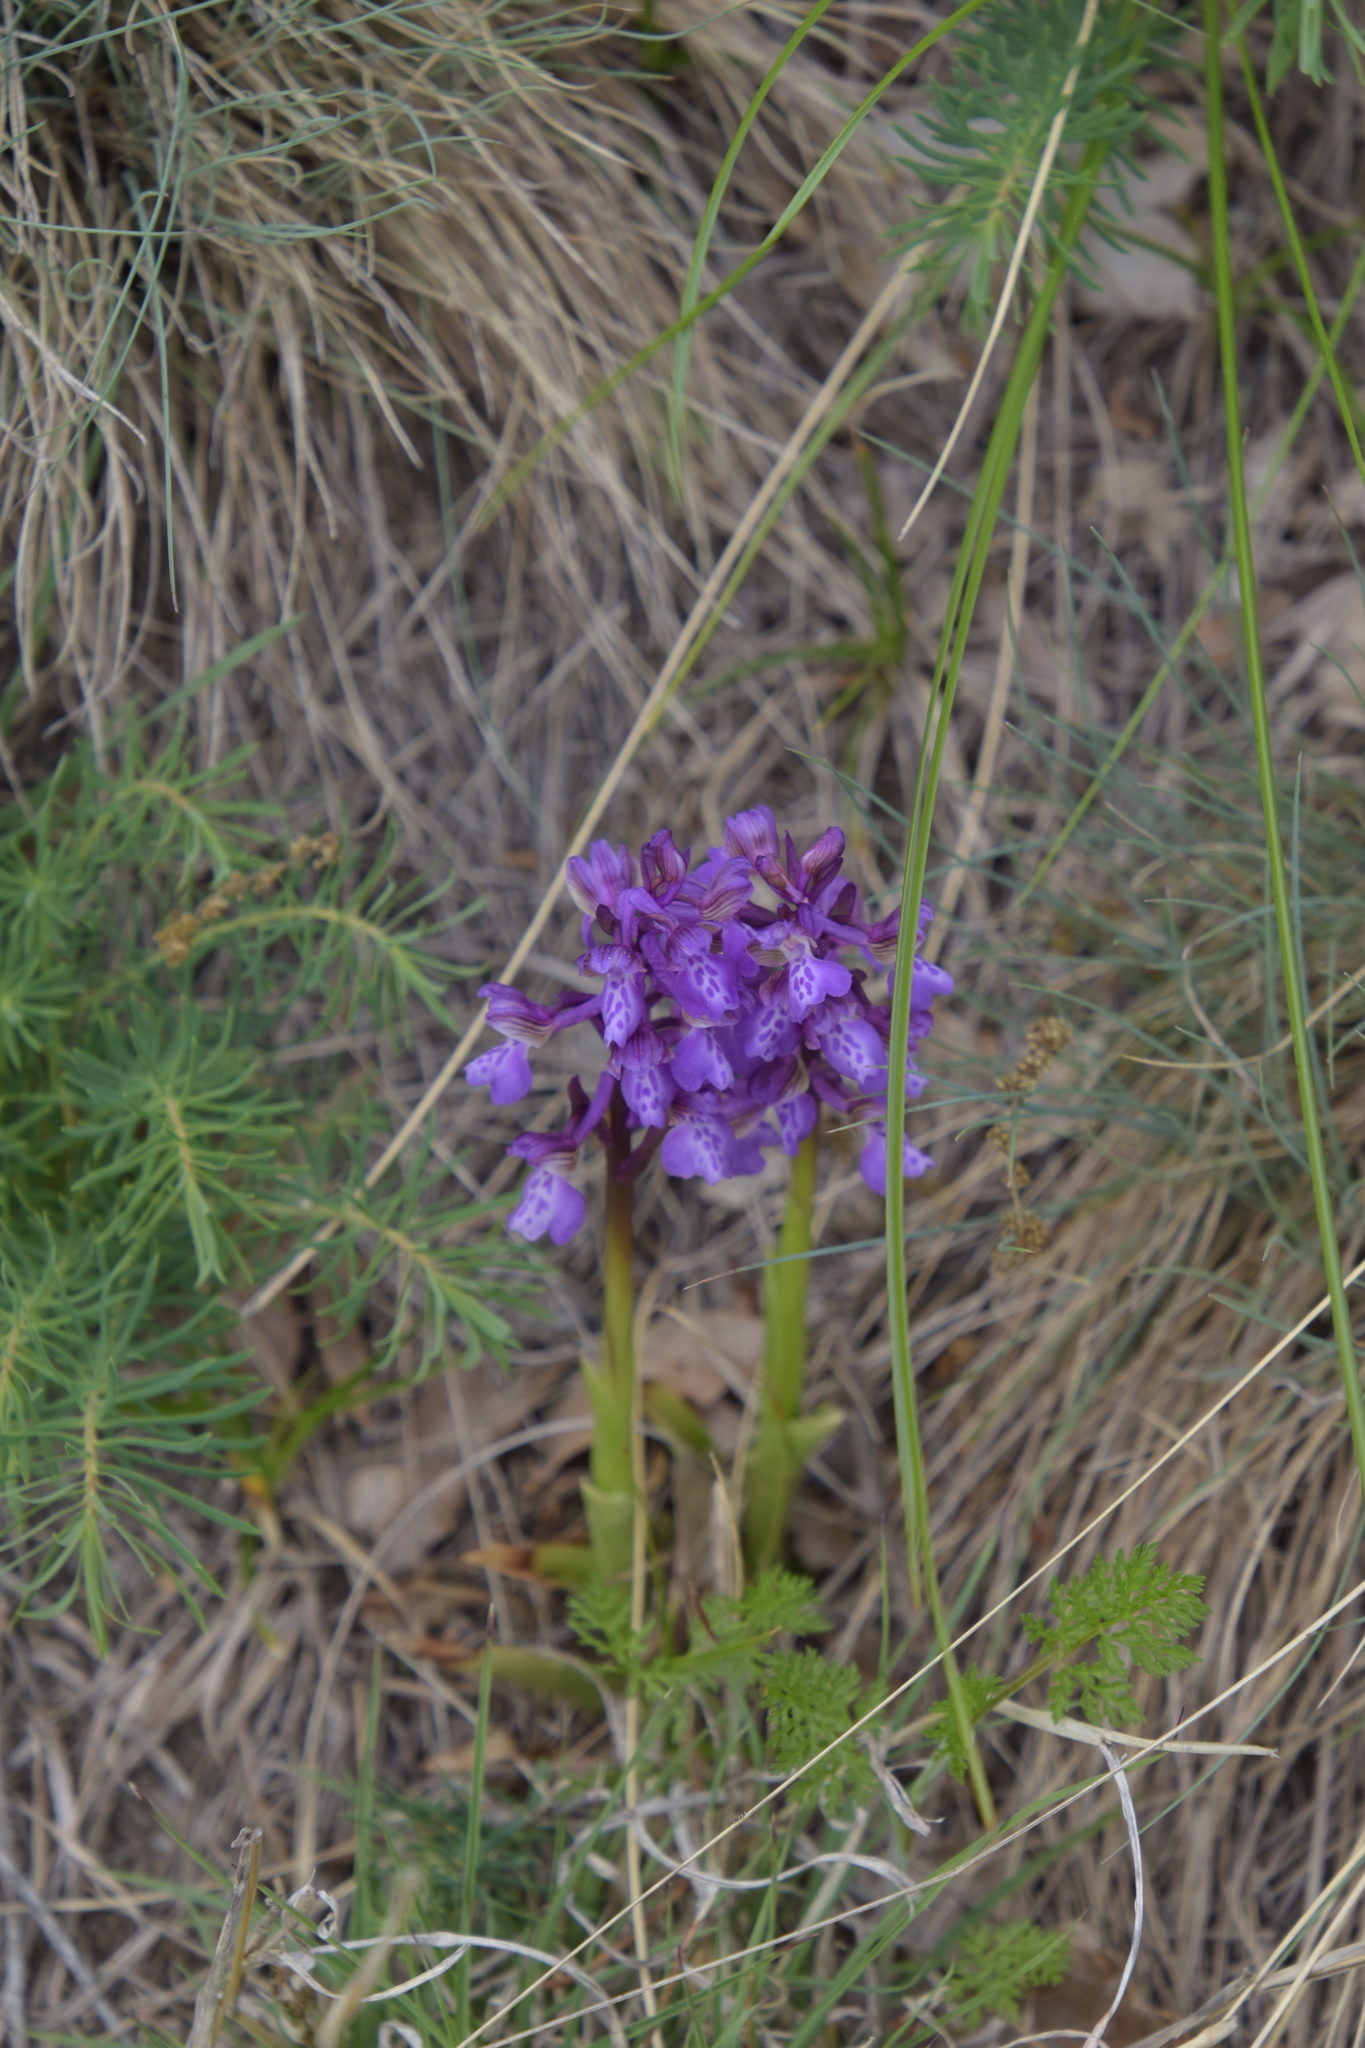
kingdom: Plantae
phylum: Tracheophyta
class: Liliopsida
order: Asparagales
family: Orchidaceae
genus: Anacamptis
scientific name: Anacamptis morio
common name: Green-winged orchid
